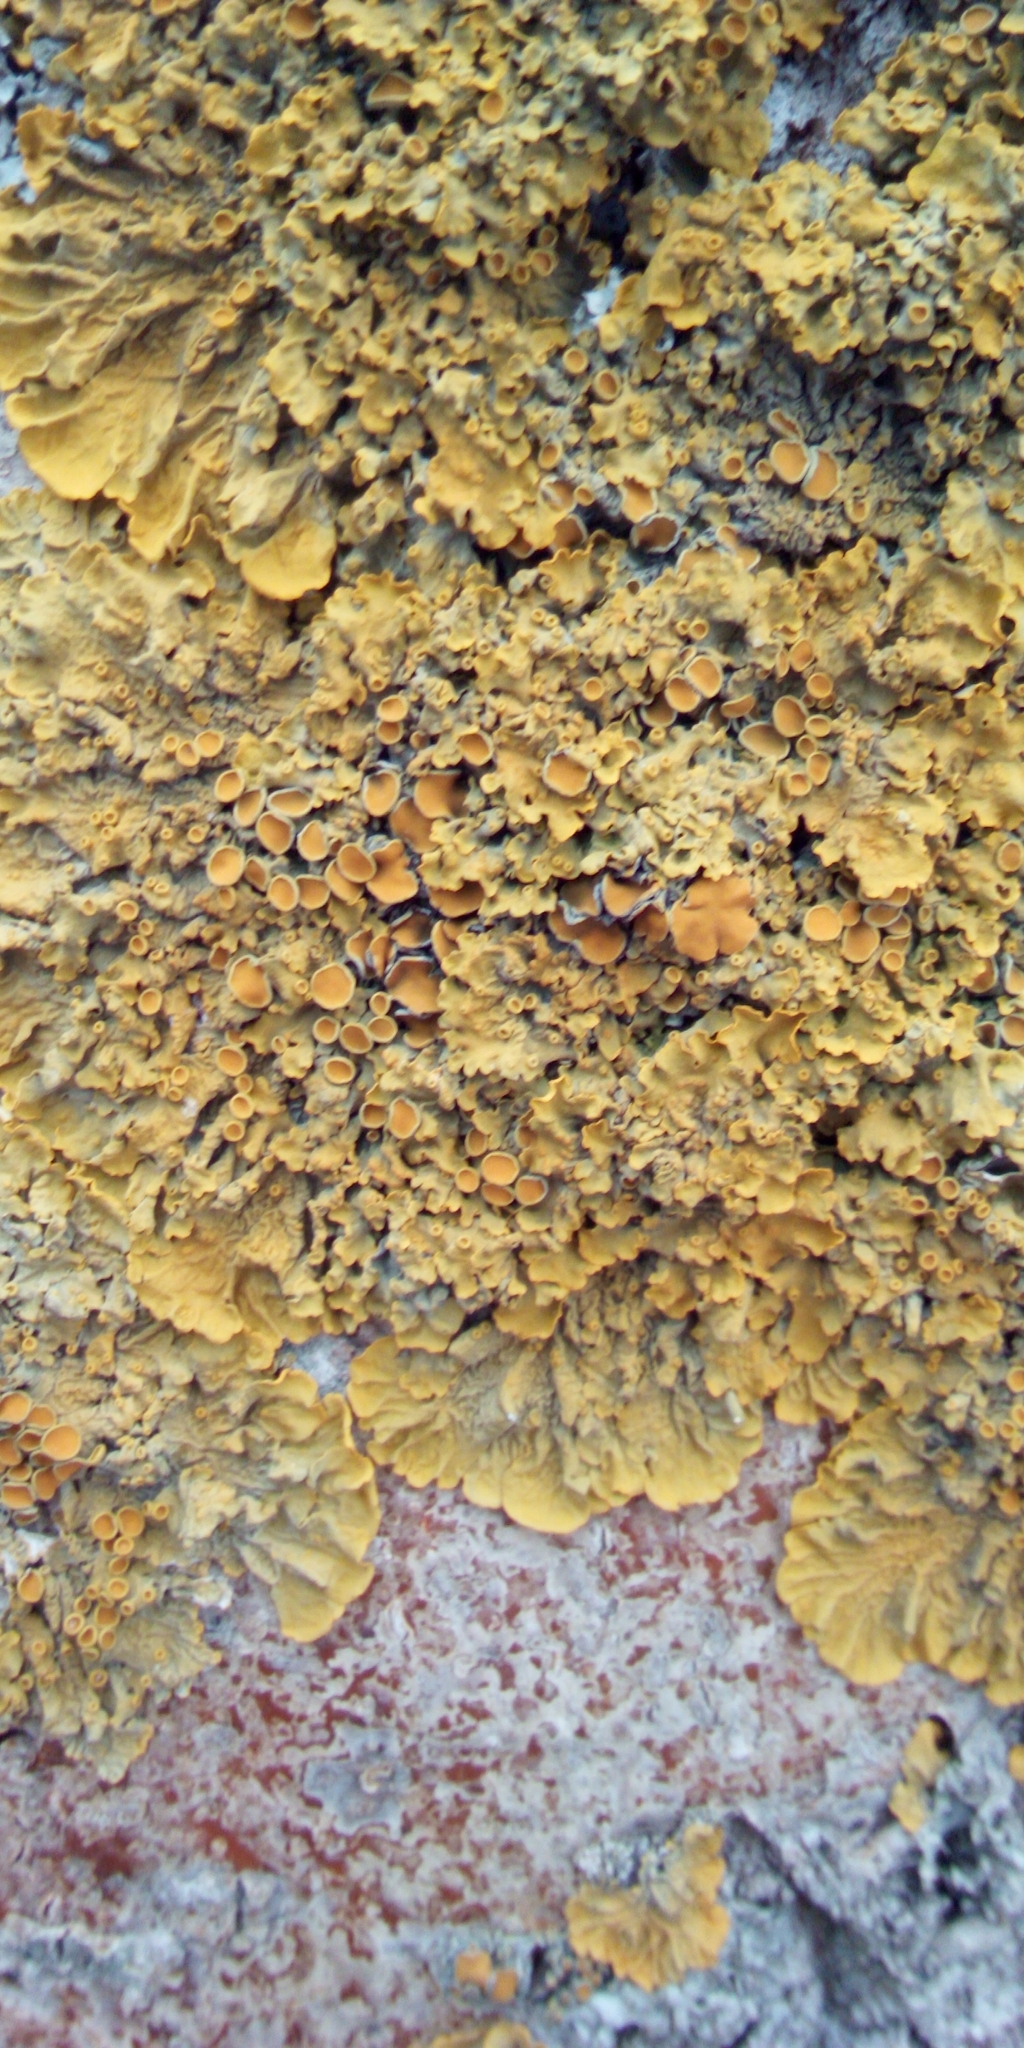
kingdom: Fungi
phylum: Ascomycota
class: Lecanoromycetes
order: Teloschistales
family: Teloschistaceae
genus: Xanthoria
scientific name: Xanthoria parietina
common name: Common orange lichen
